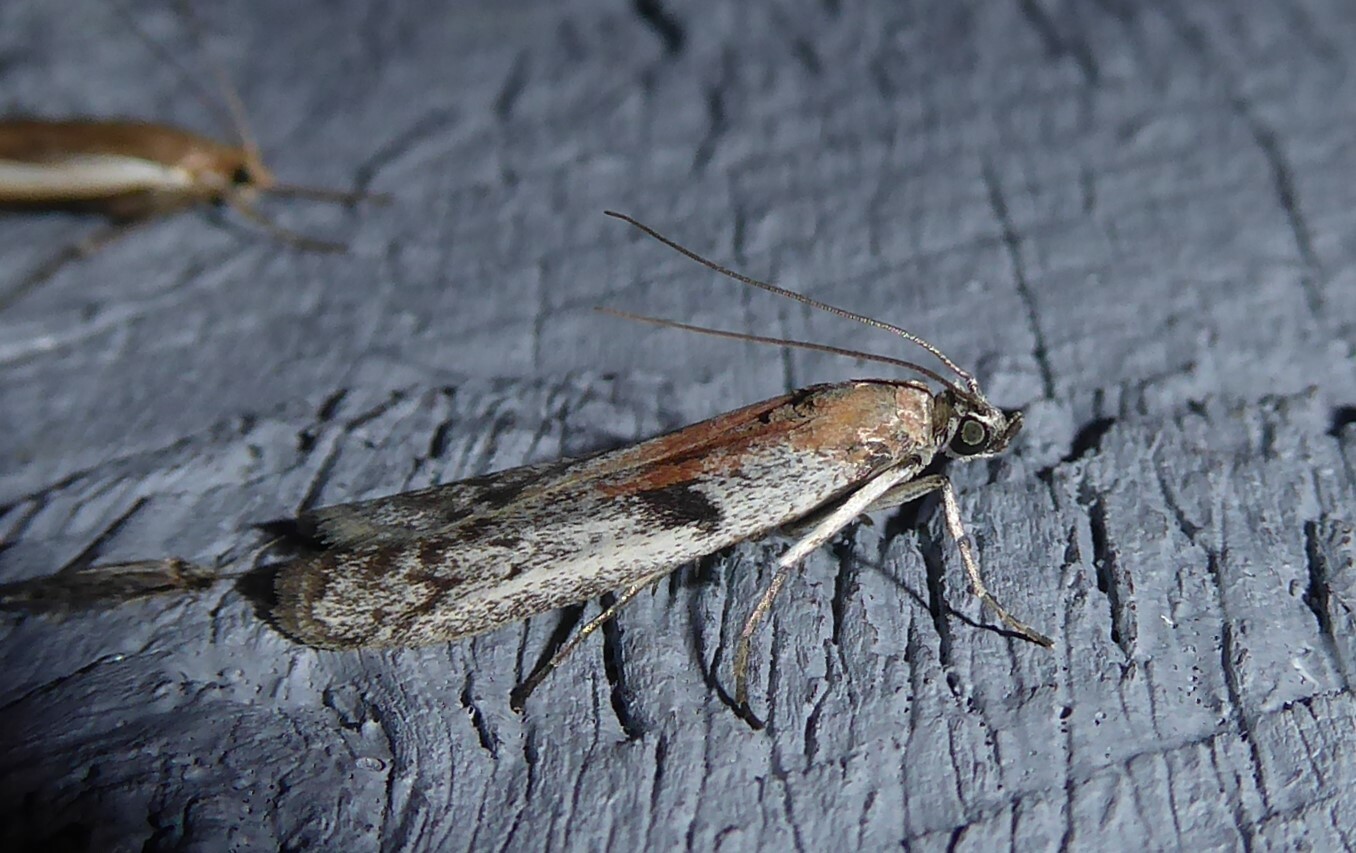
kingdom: Animalia
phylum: Arthropoda
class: Insecta
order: Lepidoptera
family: Pyralidae
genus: Patagoniodes
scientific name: Patagoniodes farinaria
